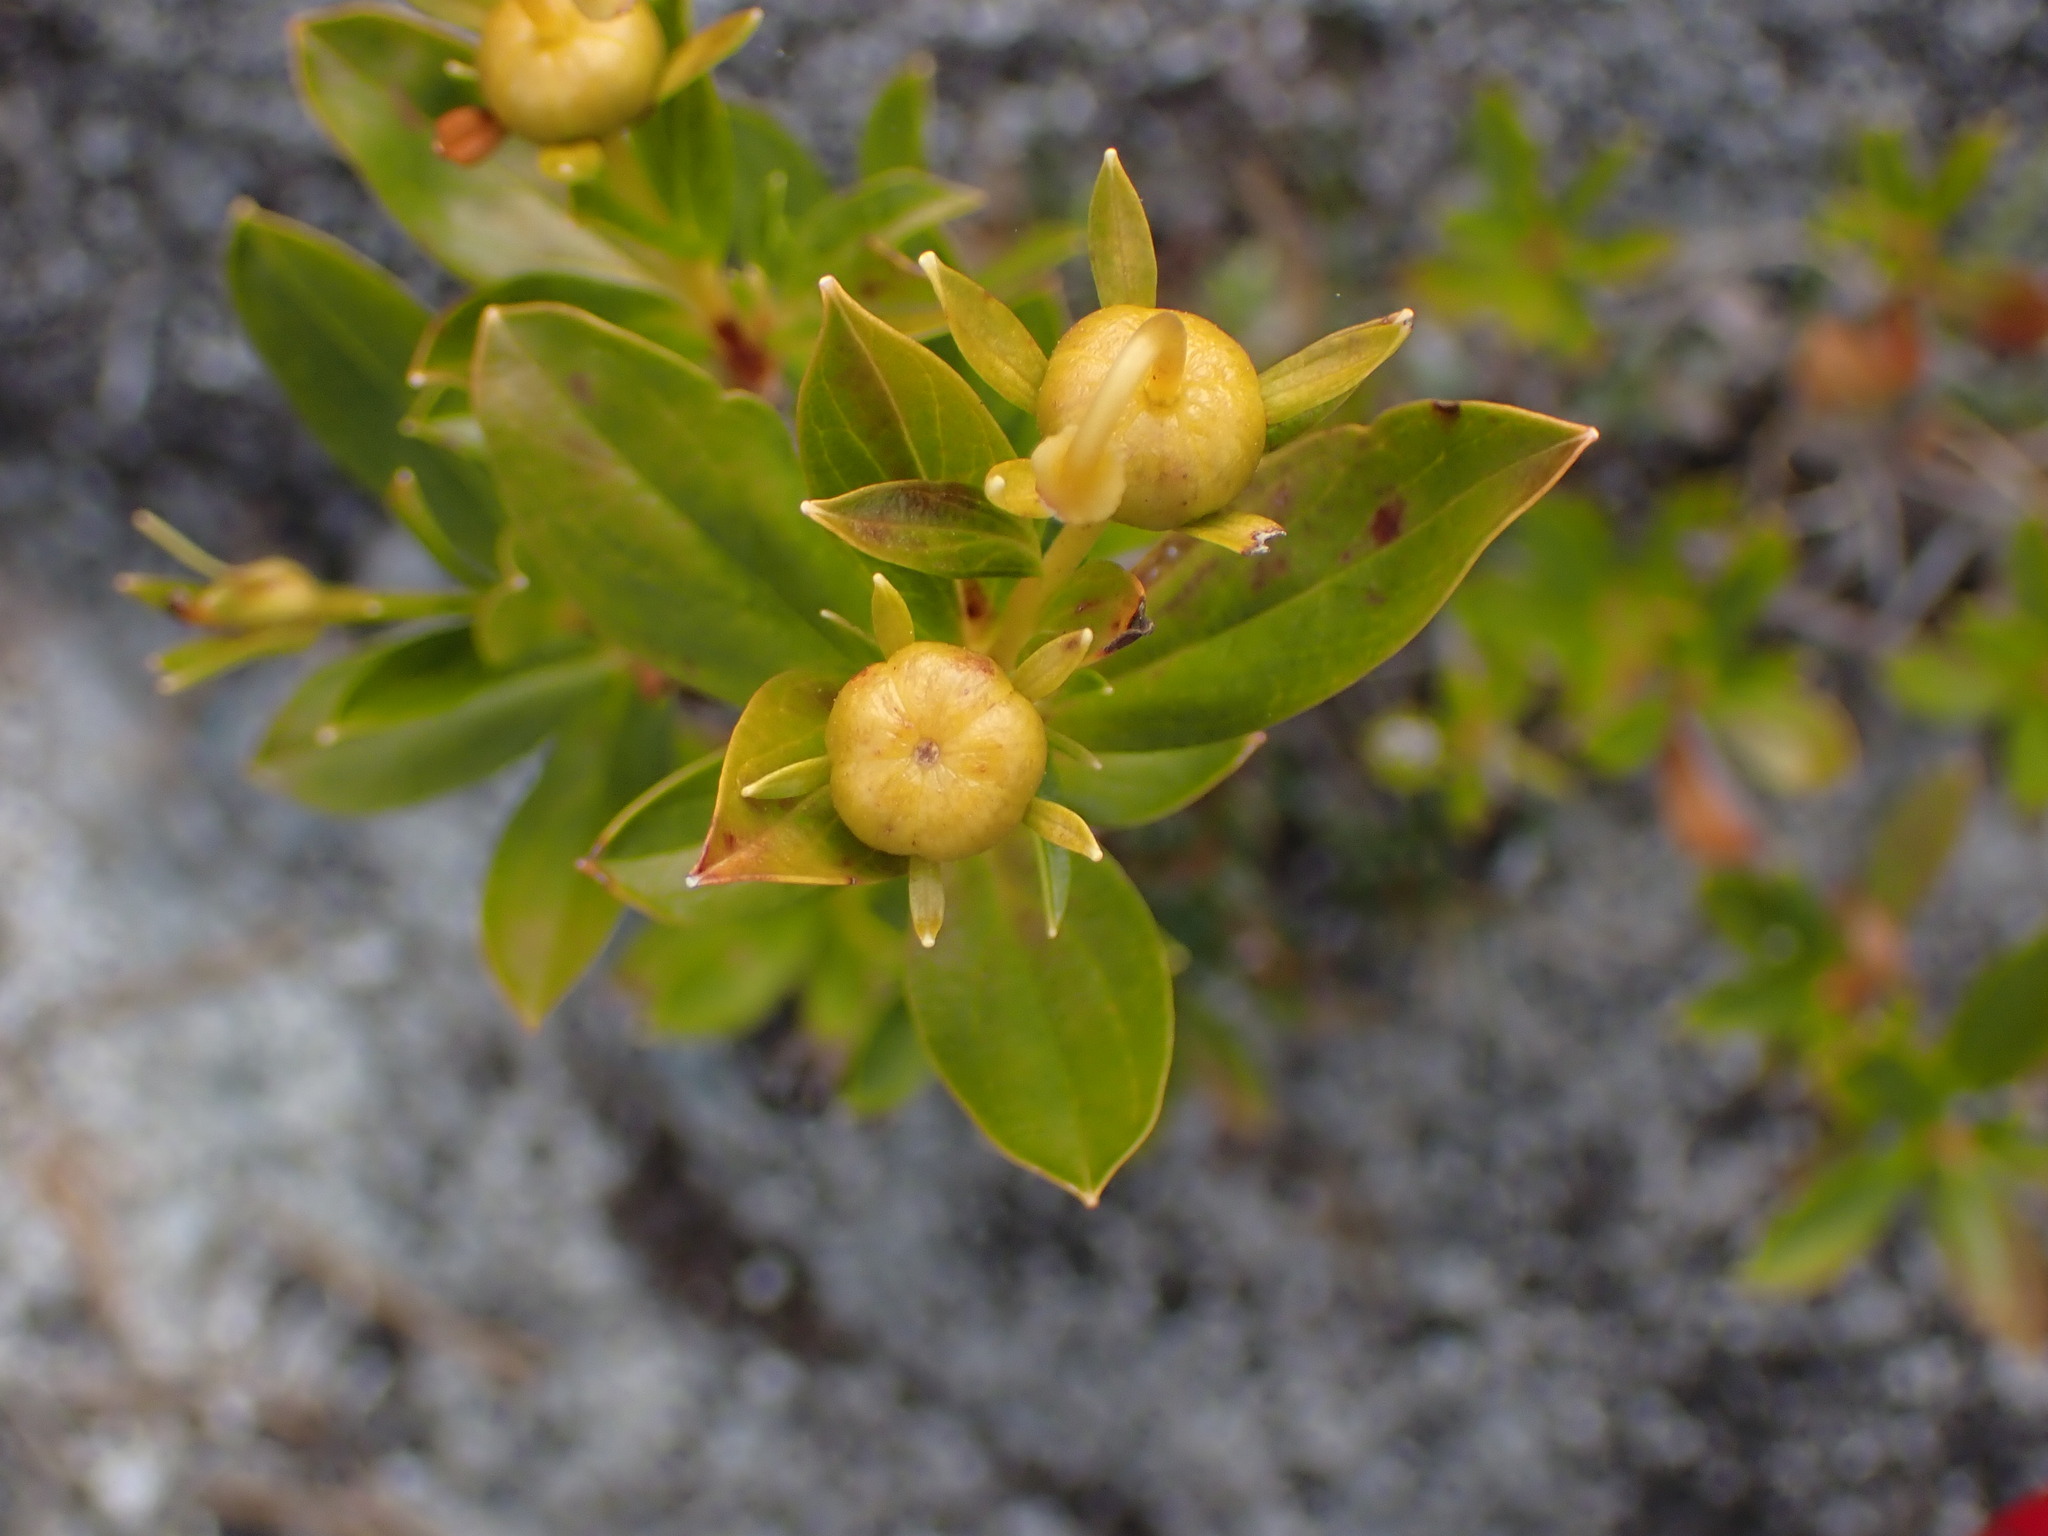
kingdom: Plantae
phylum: Tracheophyta
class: Magnoliopsida
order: Ericales
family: Ericaceae
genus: Elliottia
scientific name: Elliottia pyroliflora
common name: Copperbush
